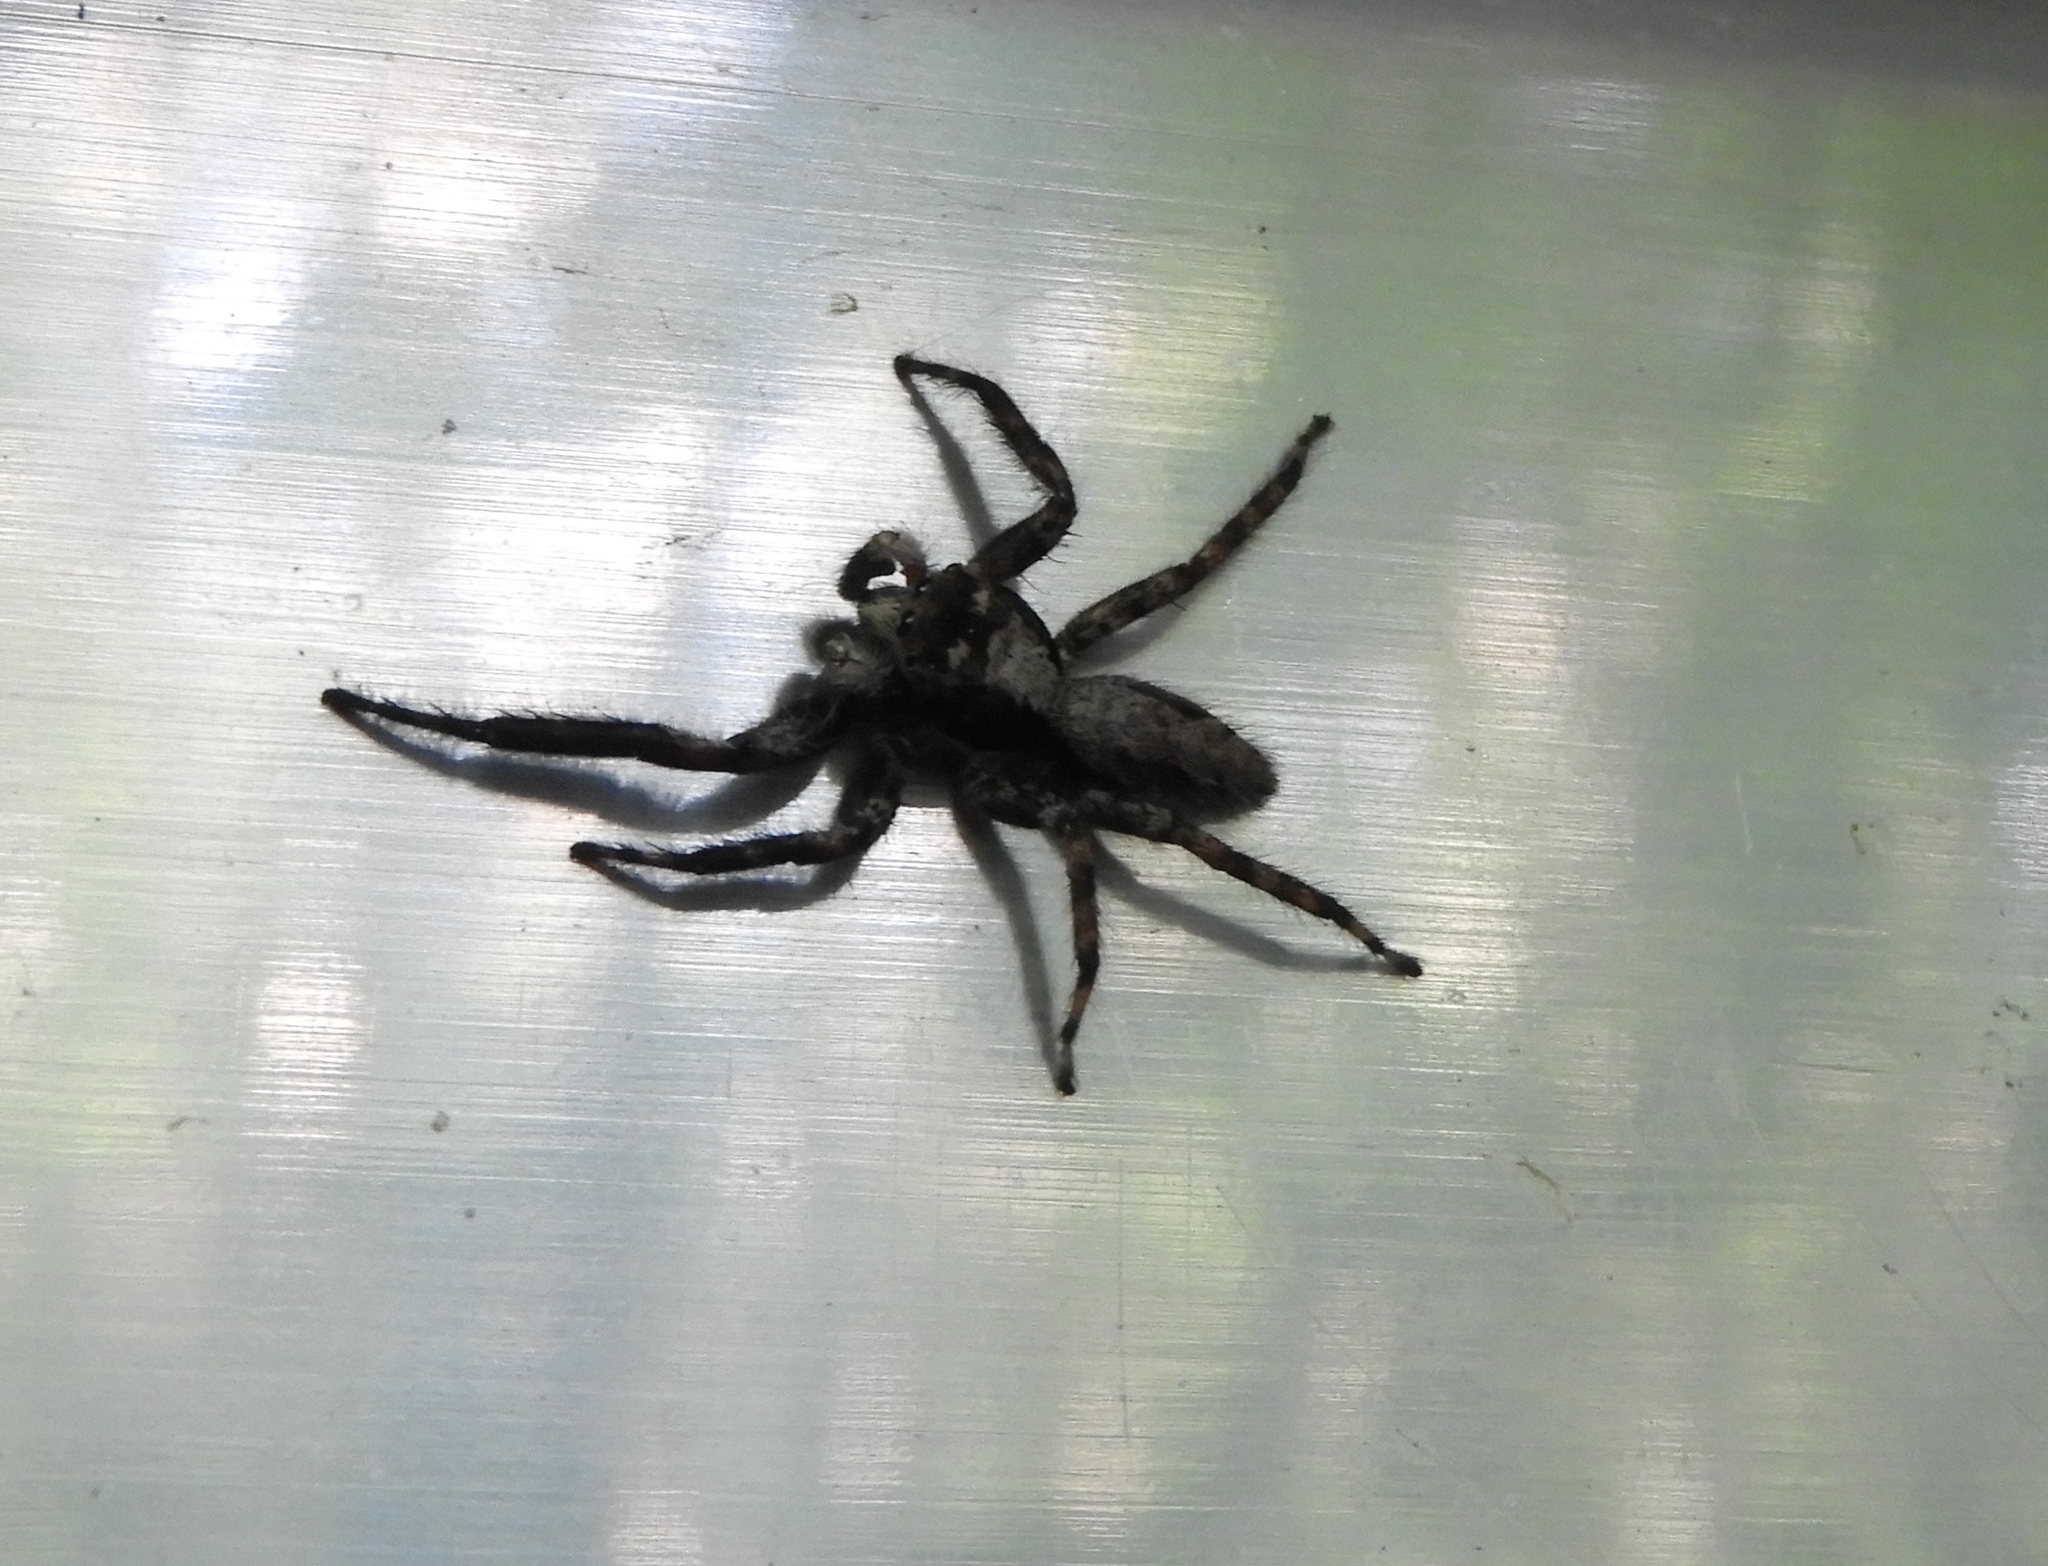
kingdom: Animalia
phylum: Arthropoda
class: Arachnida
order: Araneae
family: Salticidae
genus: Balmaceda
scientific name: Balmaceda
